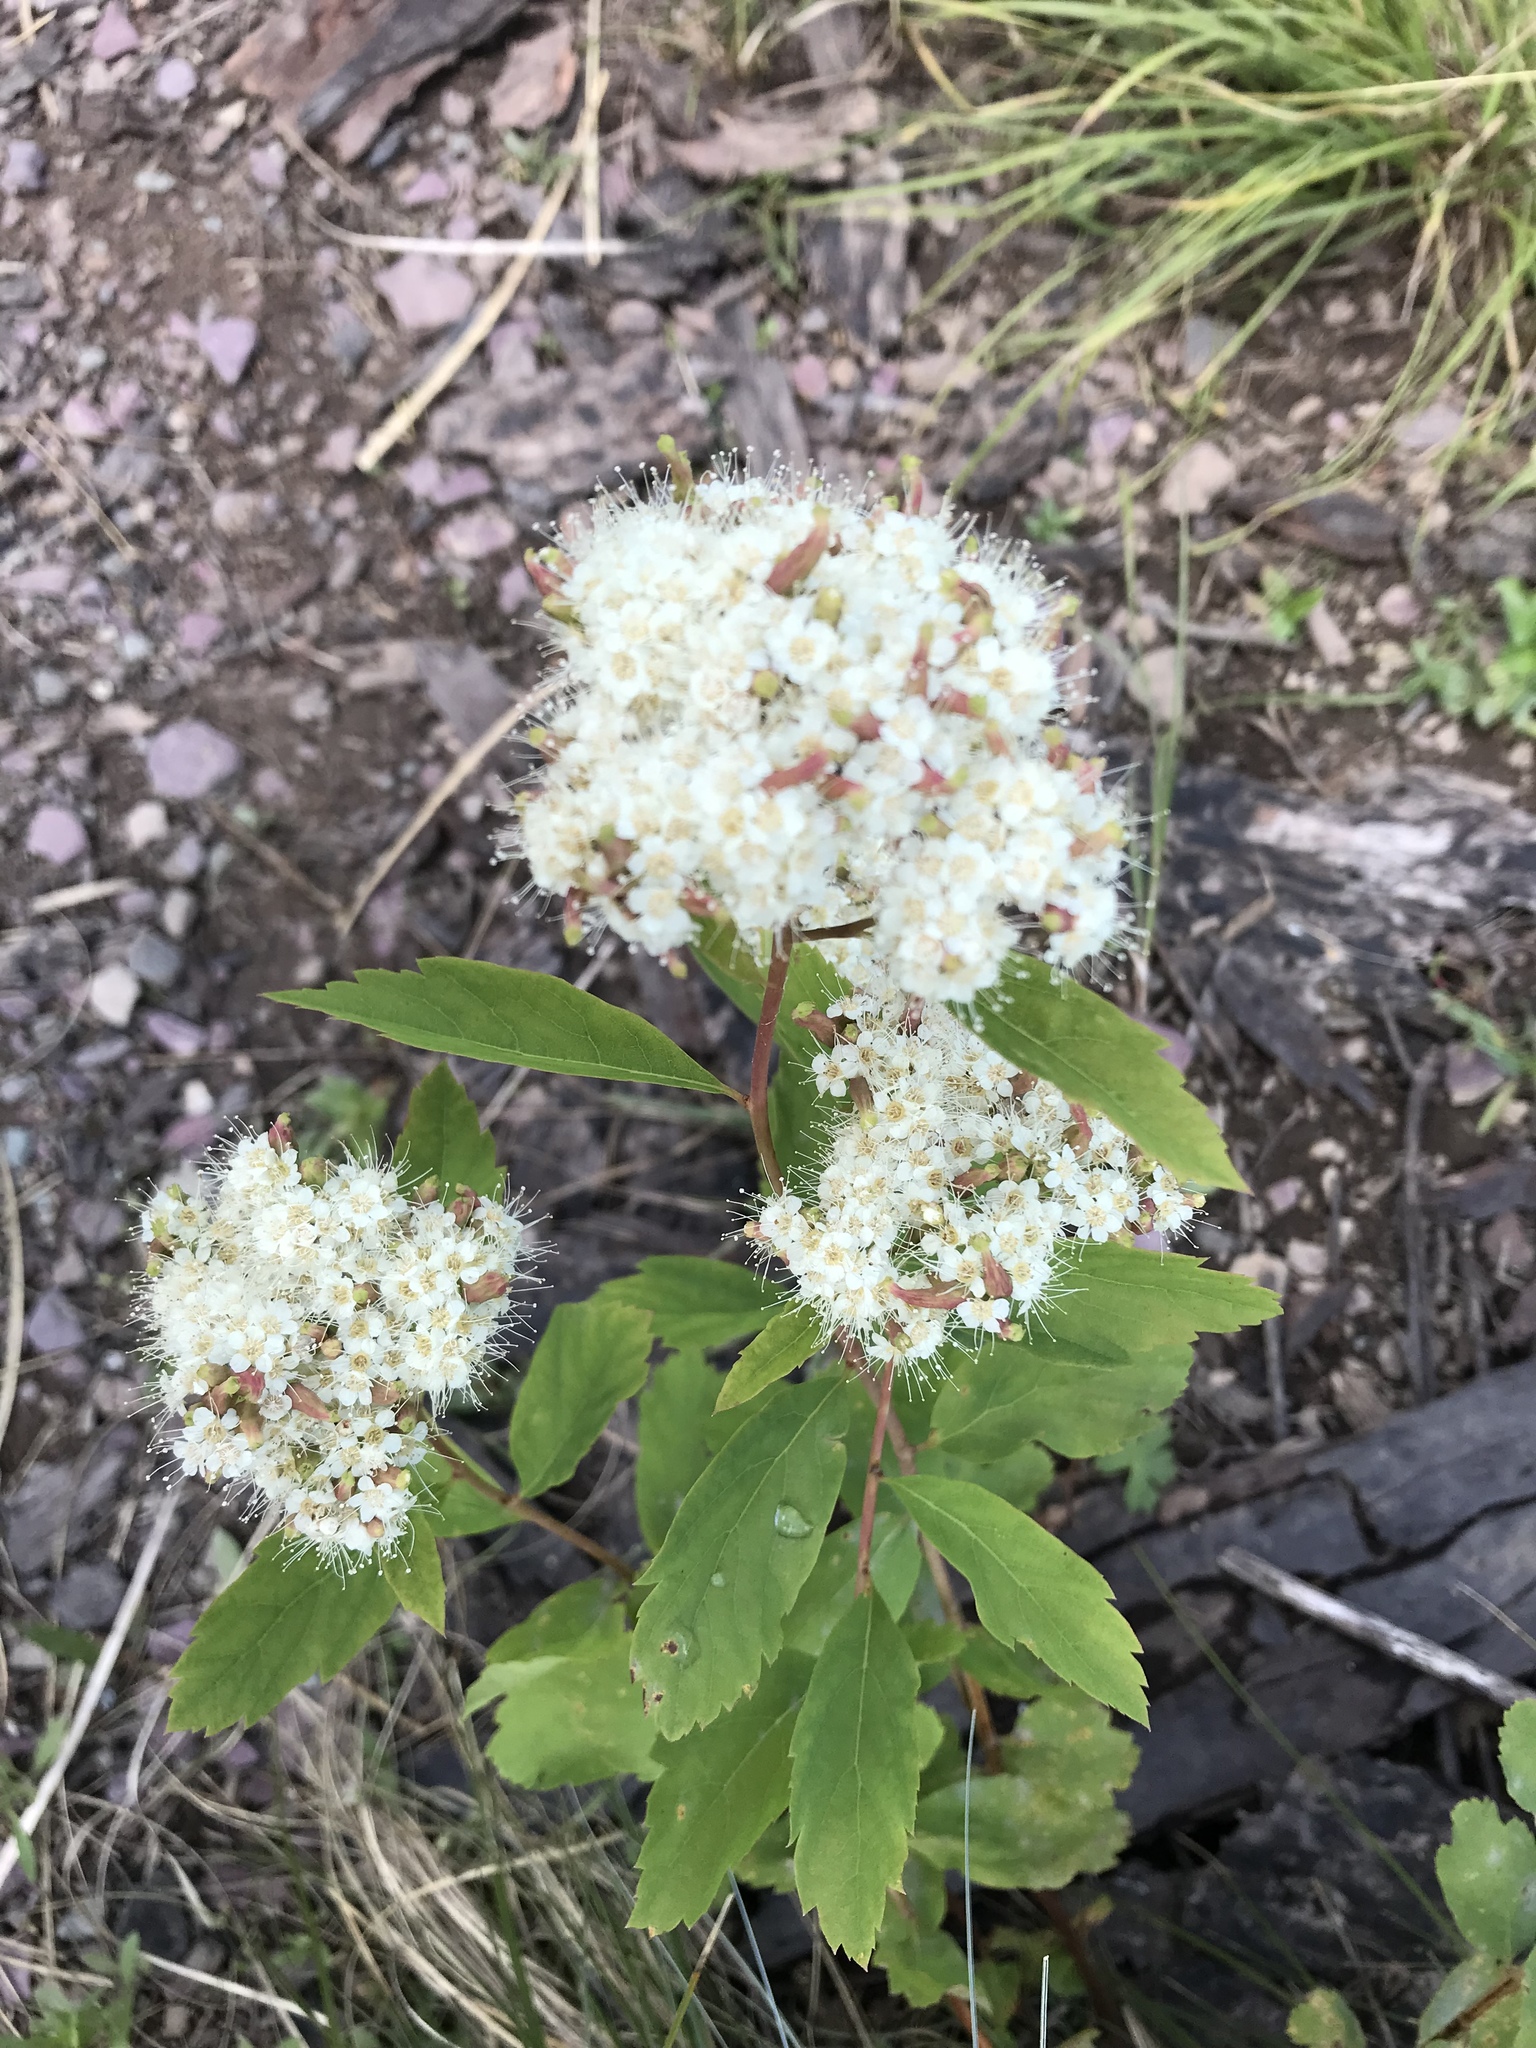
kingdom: Plantae
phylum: Tracheophyta
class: Magnoliopsida
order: Rosales
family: Rosaceae
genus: Spiraea
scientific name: Spiraea lucida
